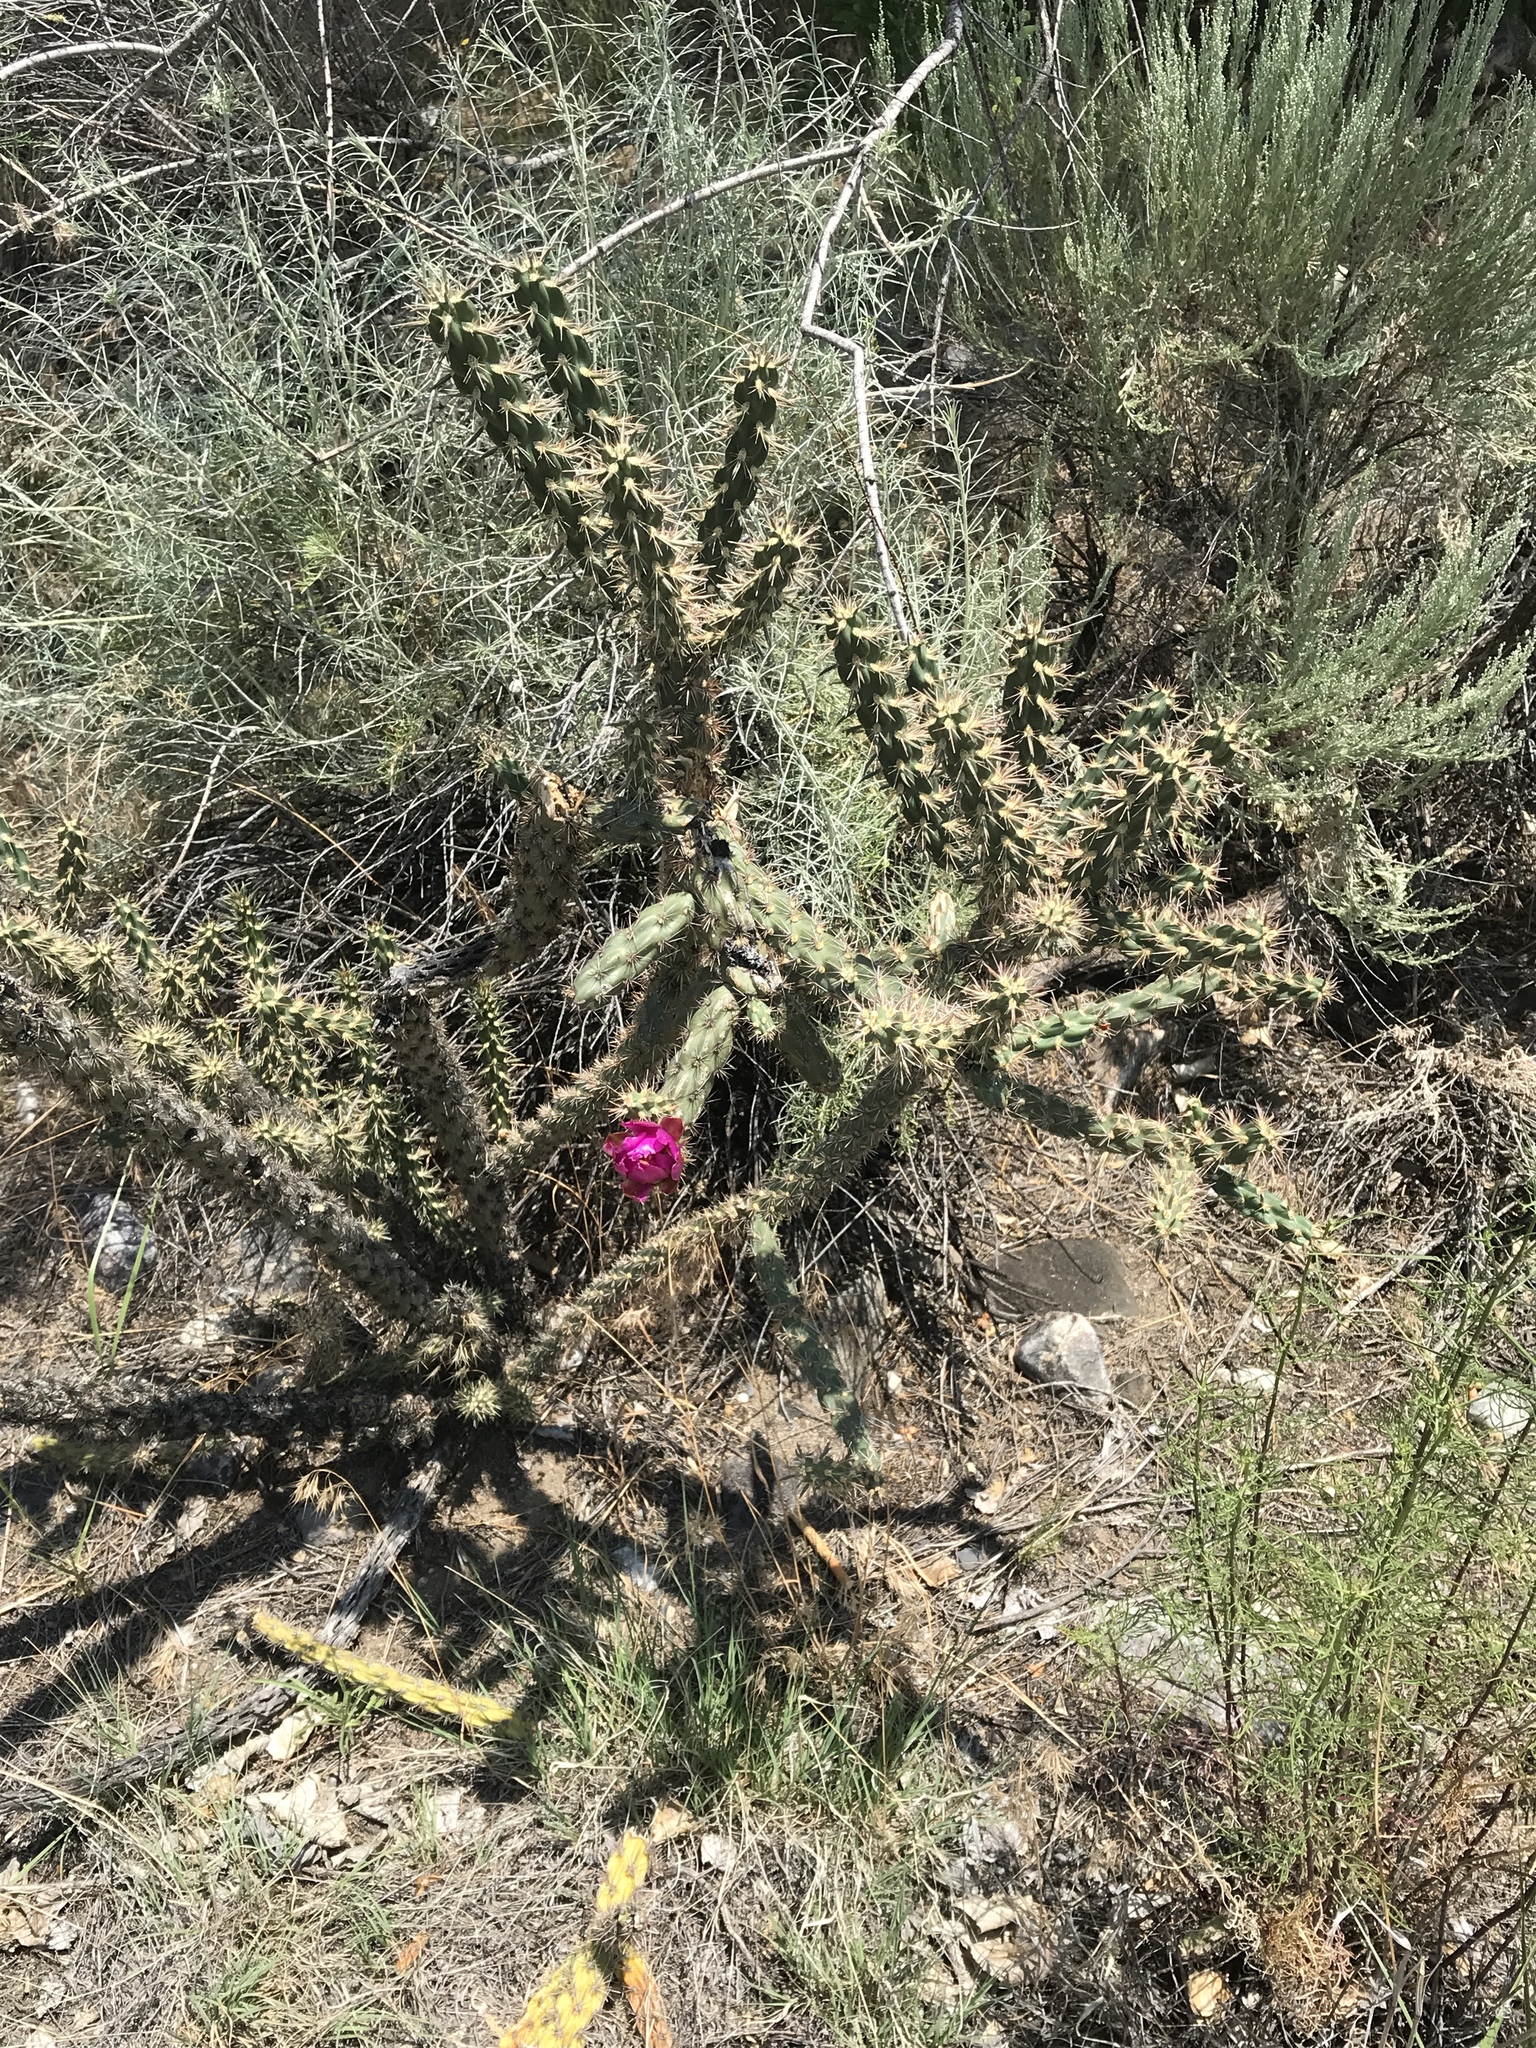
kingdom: Plantae
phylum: Tracheophyta
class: Magnoliopsida
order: Caryophyllales
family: Cactaceae
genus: Cylindropuntia
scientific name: Cylindropuntia imbricata
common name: Candelabrum cactus
